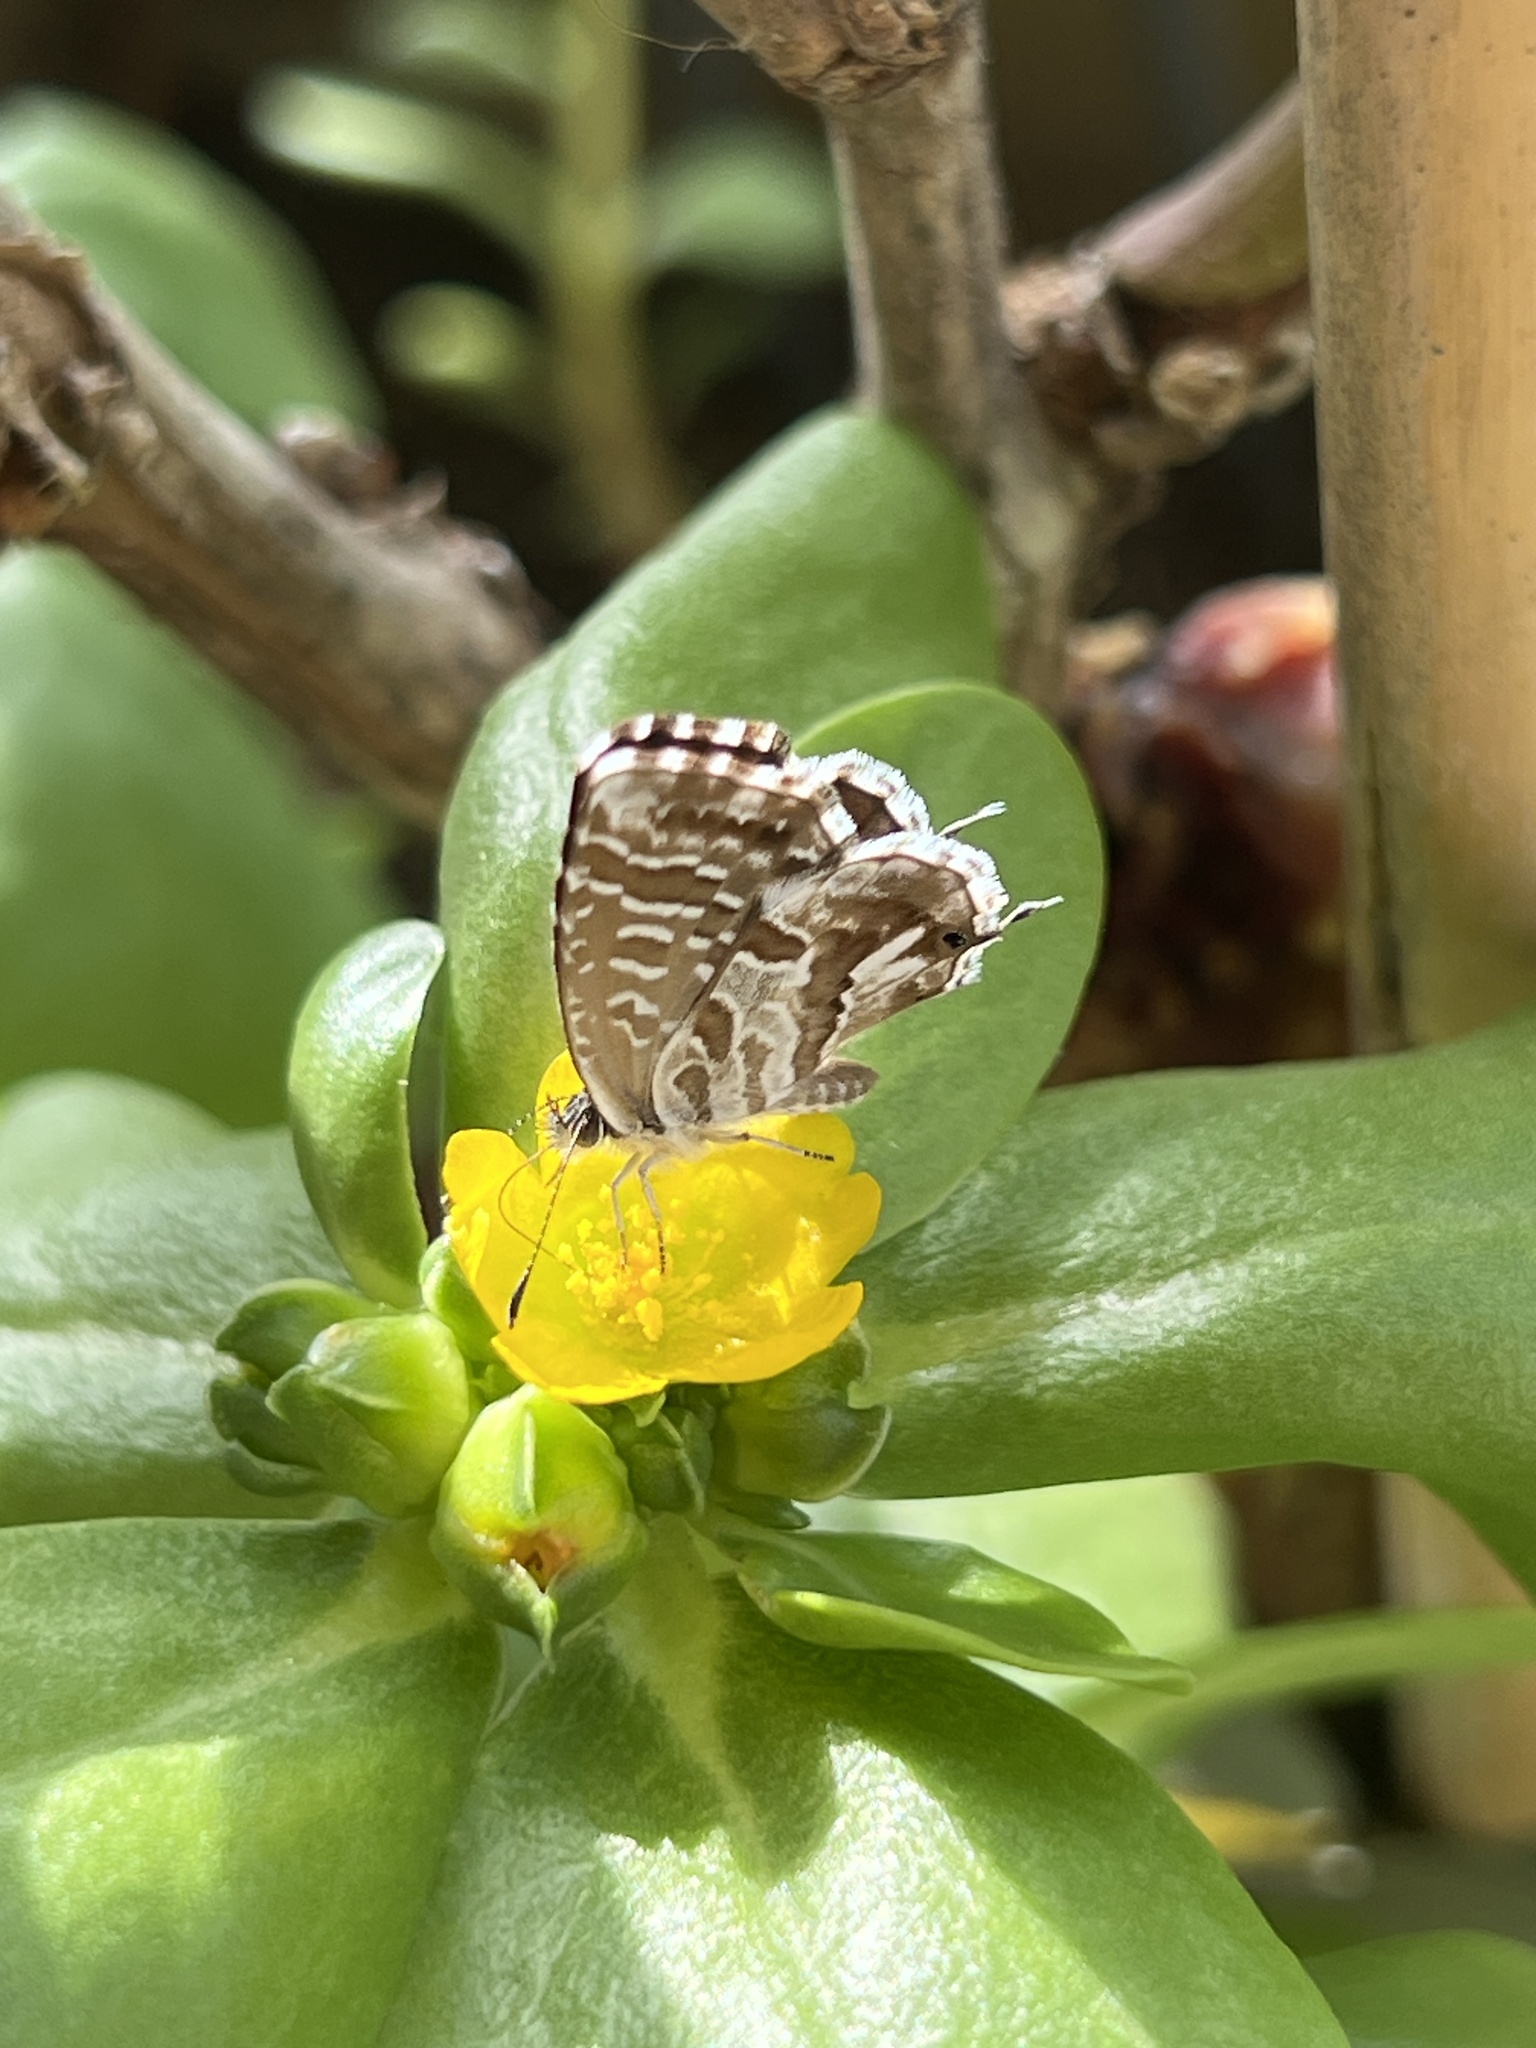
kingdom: Animalia
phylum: Arthropoda
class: Insecta
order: Lepidoptera
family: Lycaenidae
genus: Cacyreus
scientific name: Cacyreus marshalli
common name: Geranium bronze
